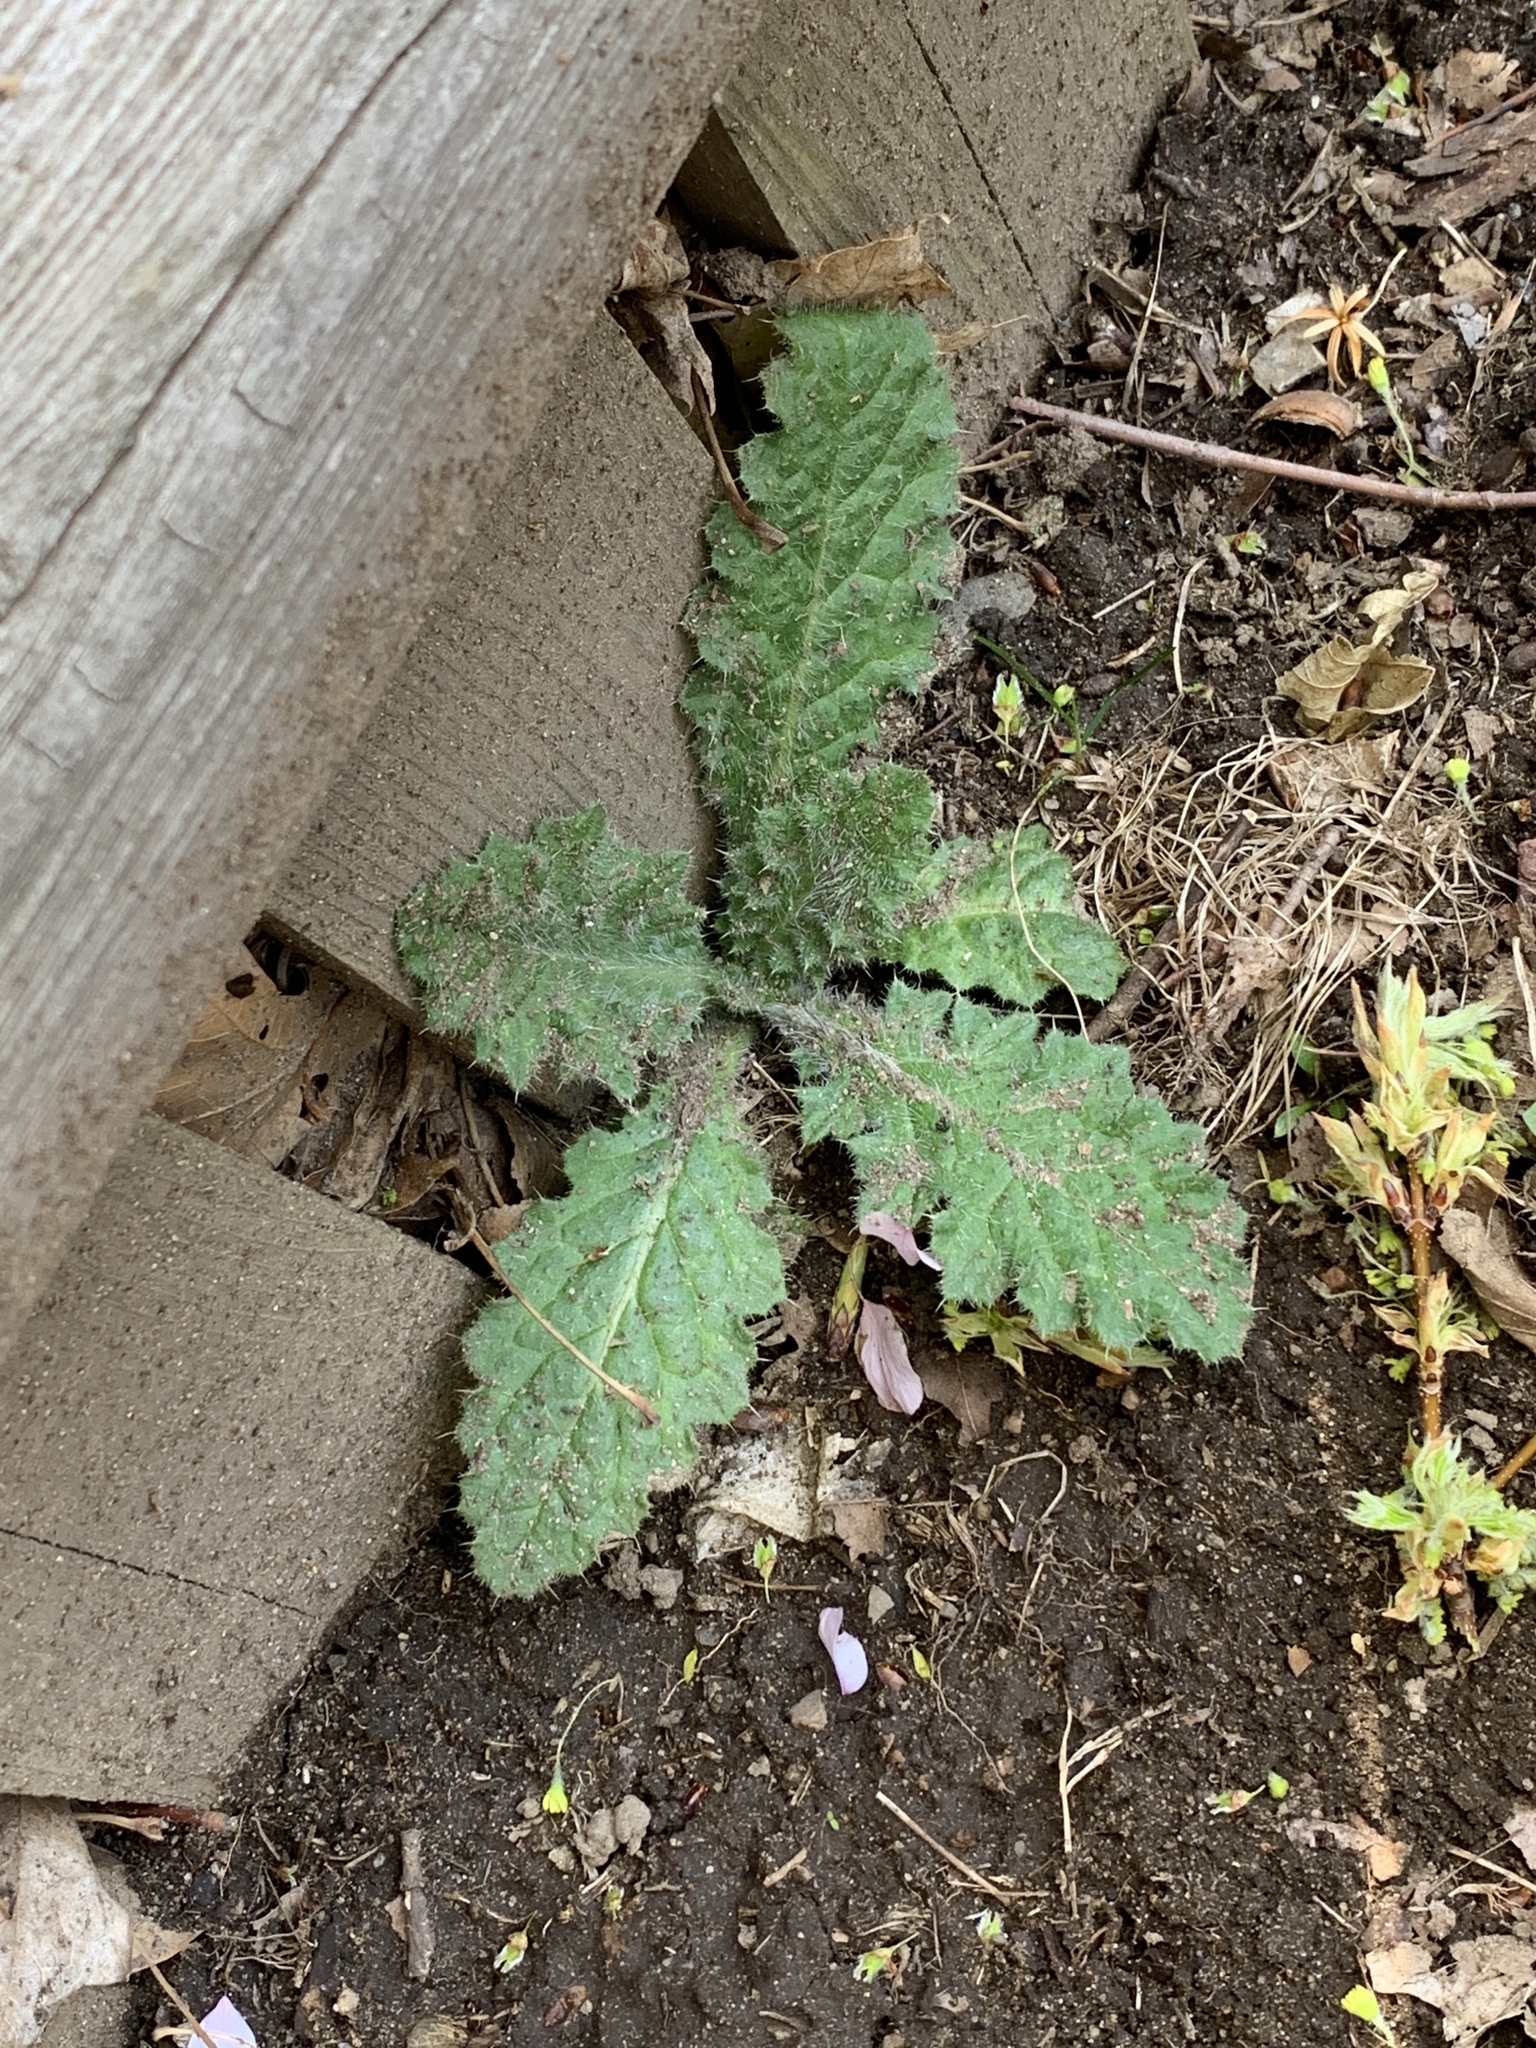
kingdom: Plantae
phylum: Tracheophyta
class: Magnoliopsida
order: Asterales
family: Asteraceae
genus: Cirsium
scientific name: Cirsium vulgare
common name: Bull thistle
